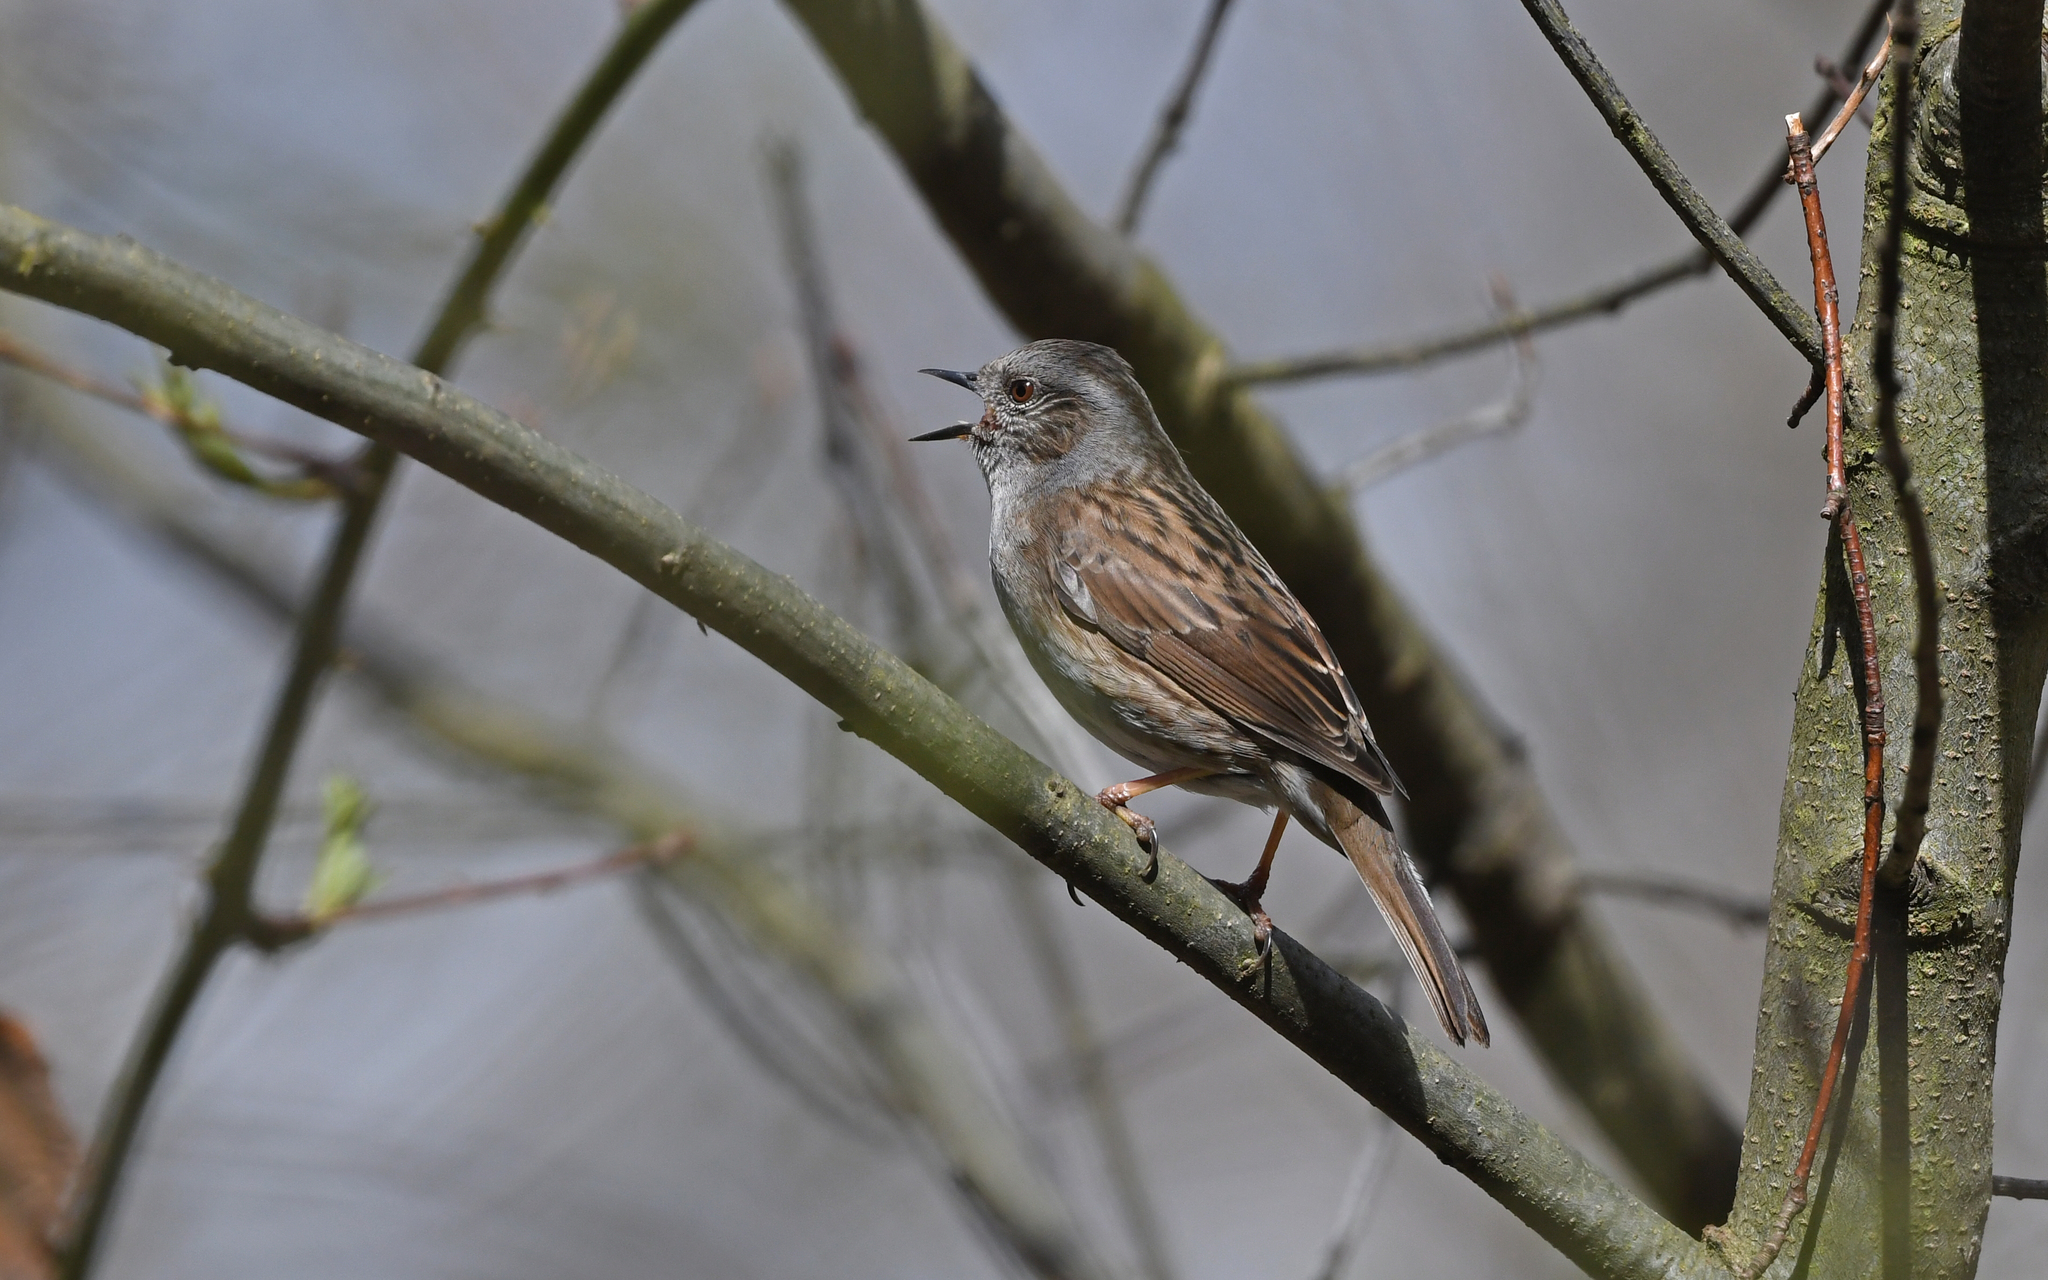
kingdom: Animalia
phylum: Chordata
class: Aves
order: Passeriformes
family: Prunellidae
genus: Prunella
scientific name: Prunella modularis
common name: Dunnock
